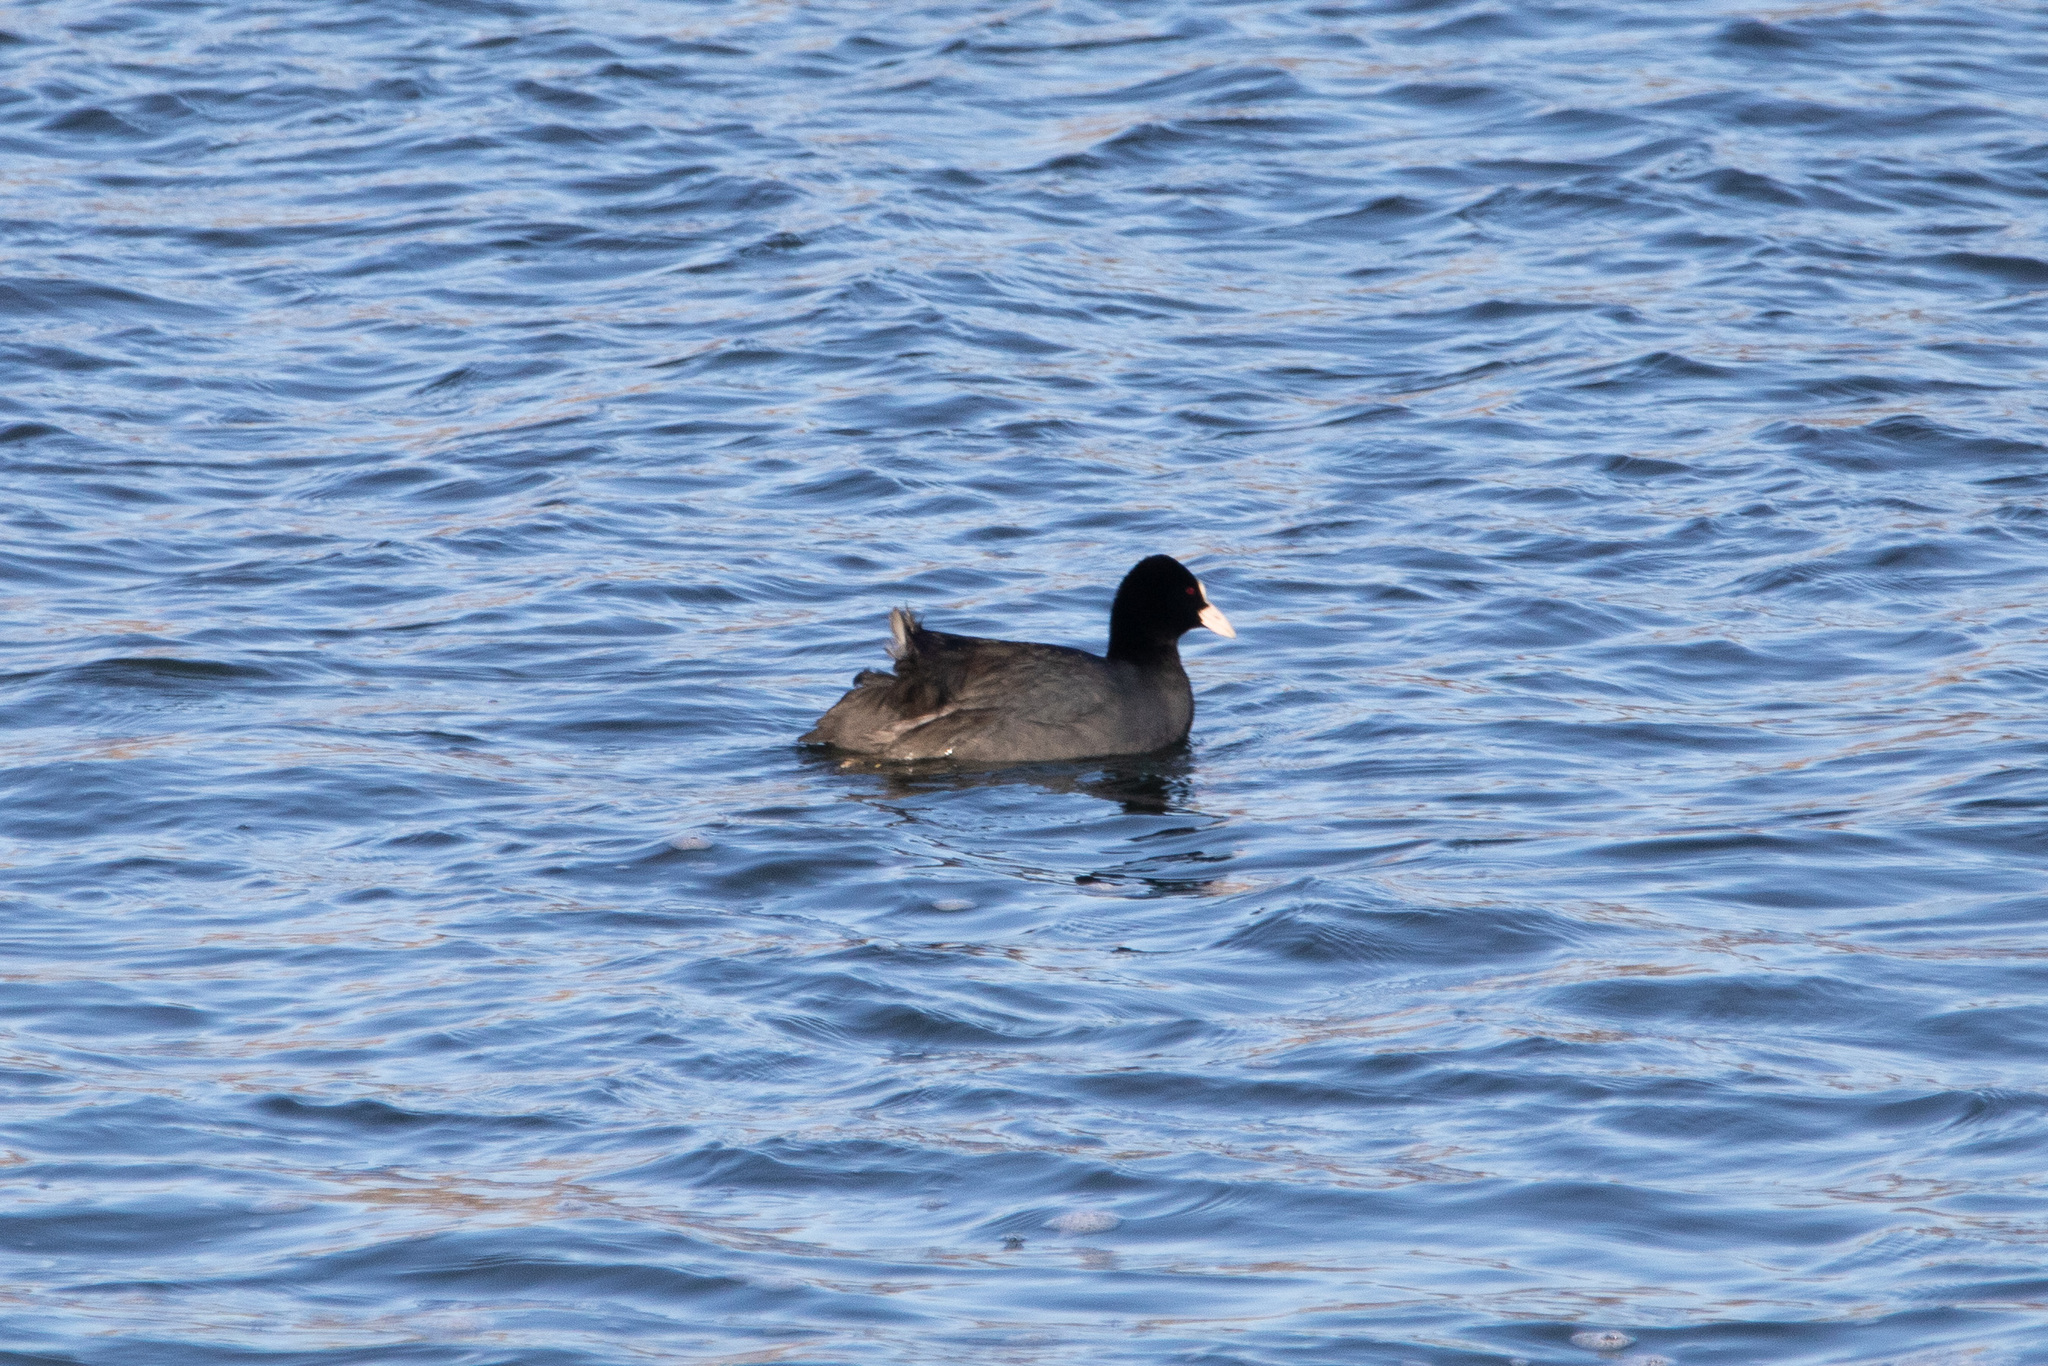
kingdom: Animalia
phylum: Chordata
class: Aves
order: Gruiformes
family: Rallidae
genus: Fulica
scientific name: Fulica atra
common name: Eurasian coot
